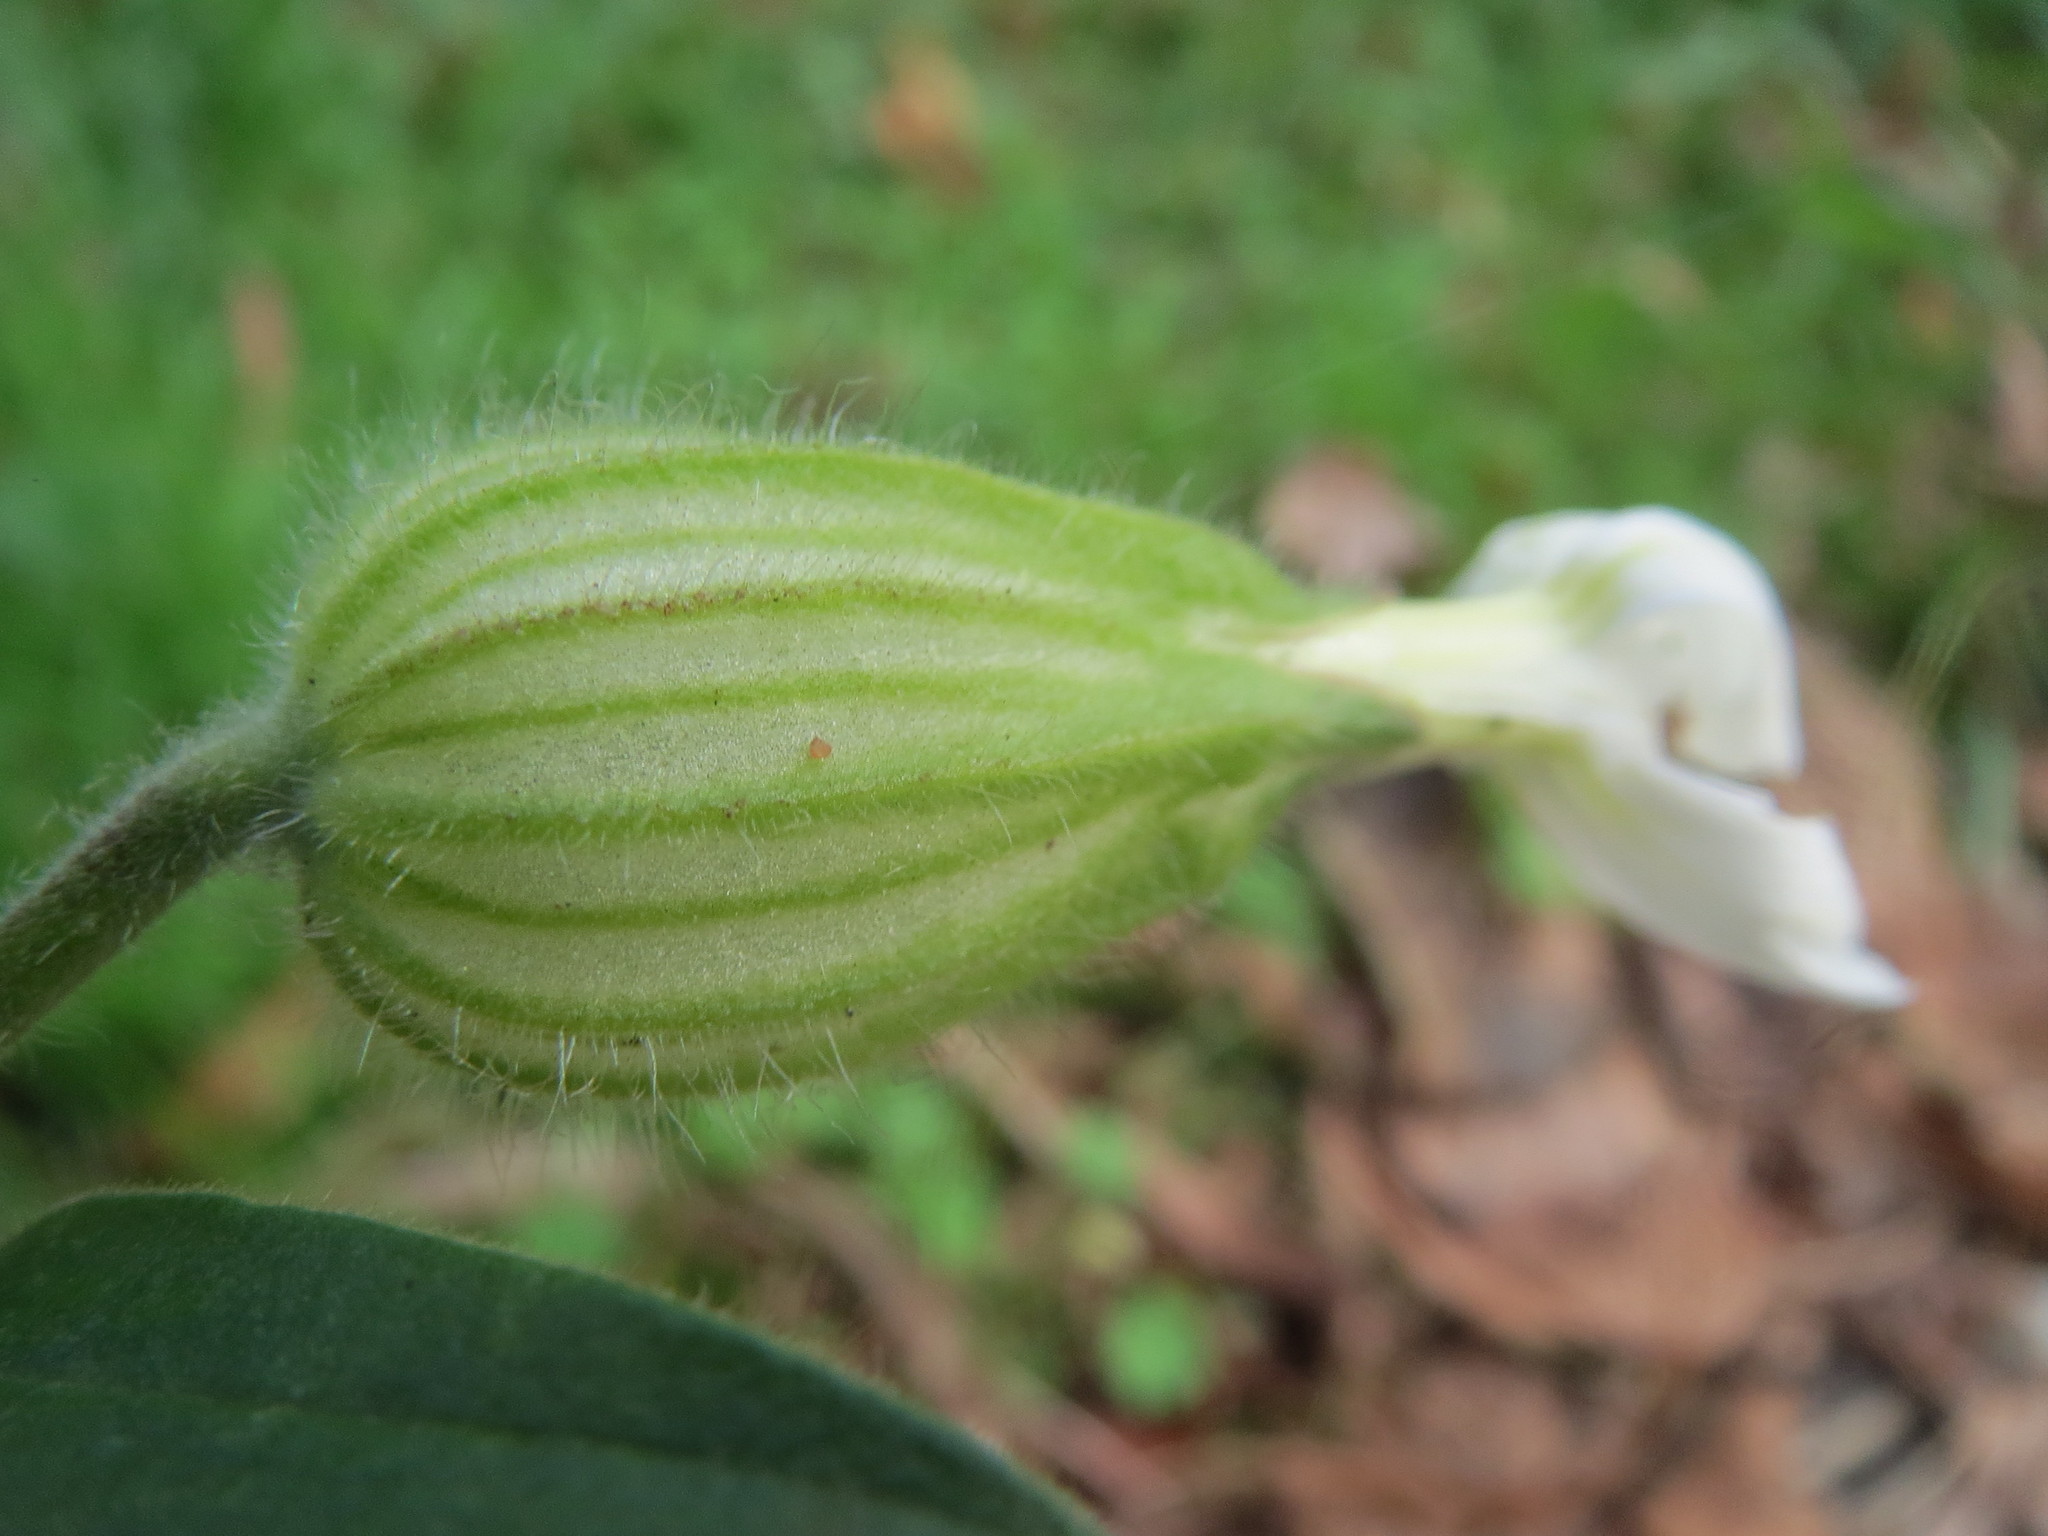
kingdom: Plantae
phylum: Tracheophyta
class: Magnoliopsida
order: Caryophyllales
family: Caryophyllaceae
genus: Silene
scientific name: Silene latifolia
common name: White campion
